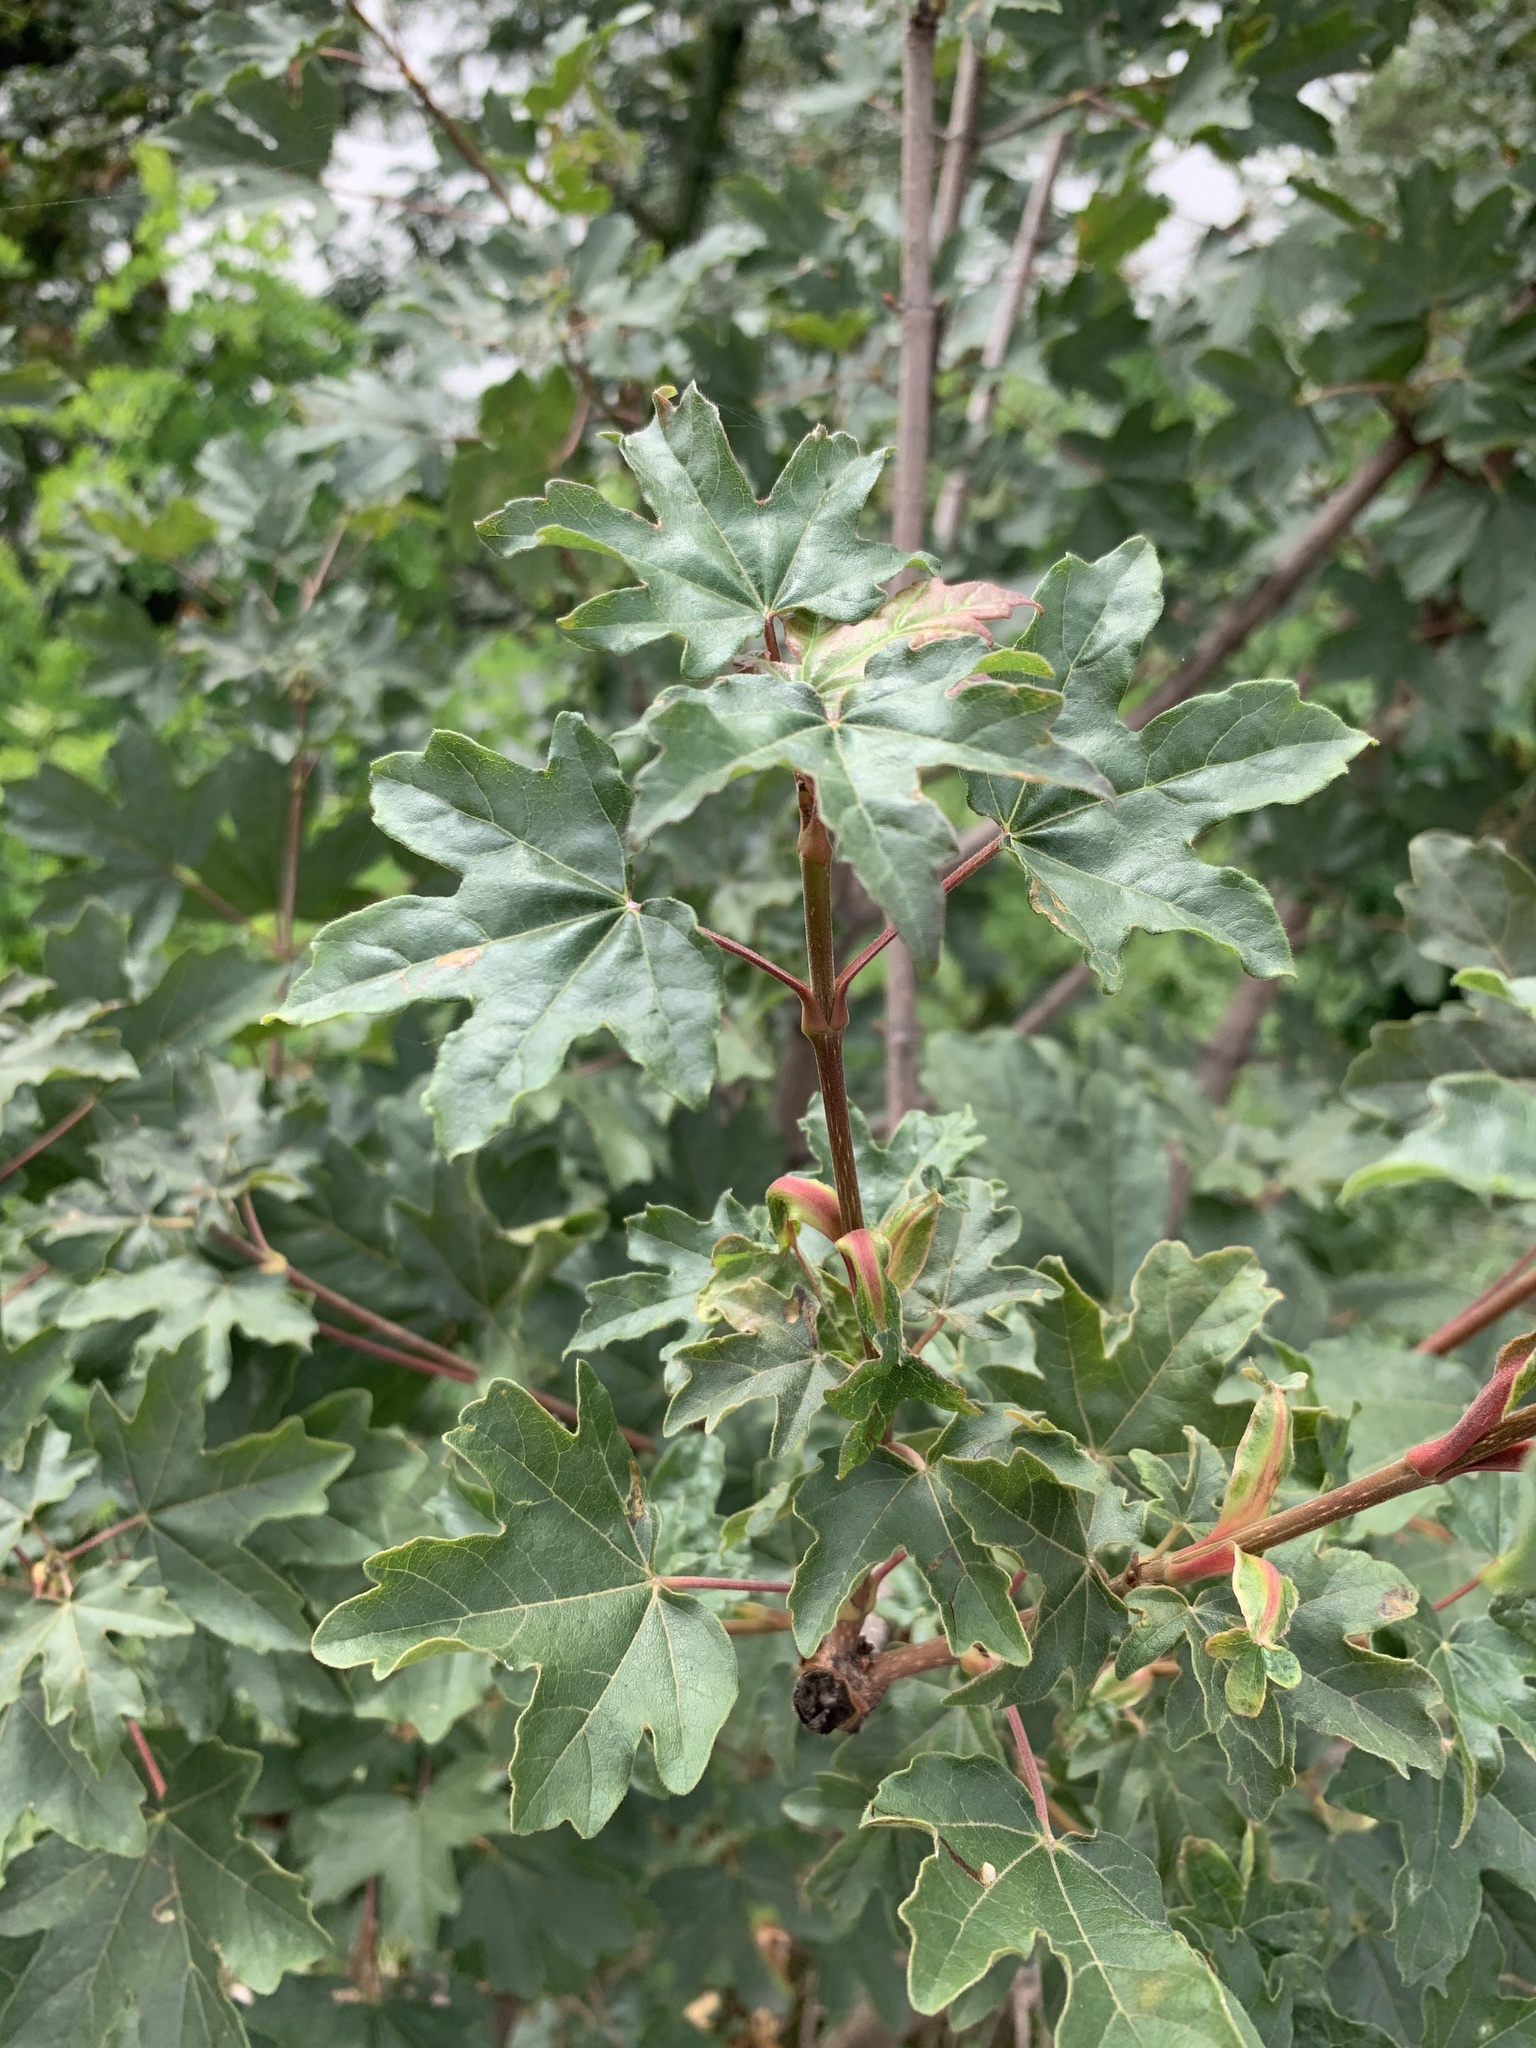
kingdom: Plantae
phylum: Tracheophyta
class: Magnoliopsida
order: Sapindales
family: Sapindaceae
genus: Acer
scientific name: Acer campestre
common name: Field maple
